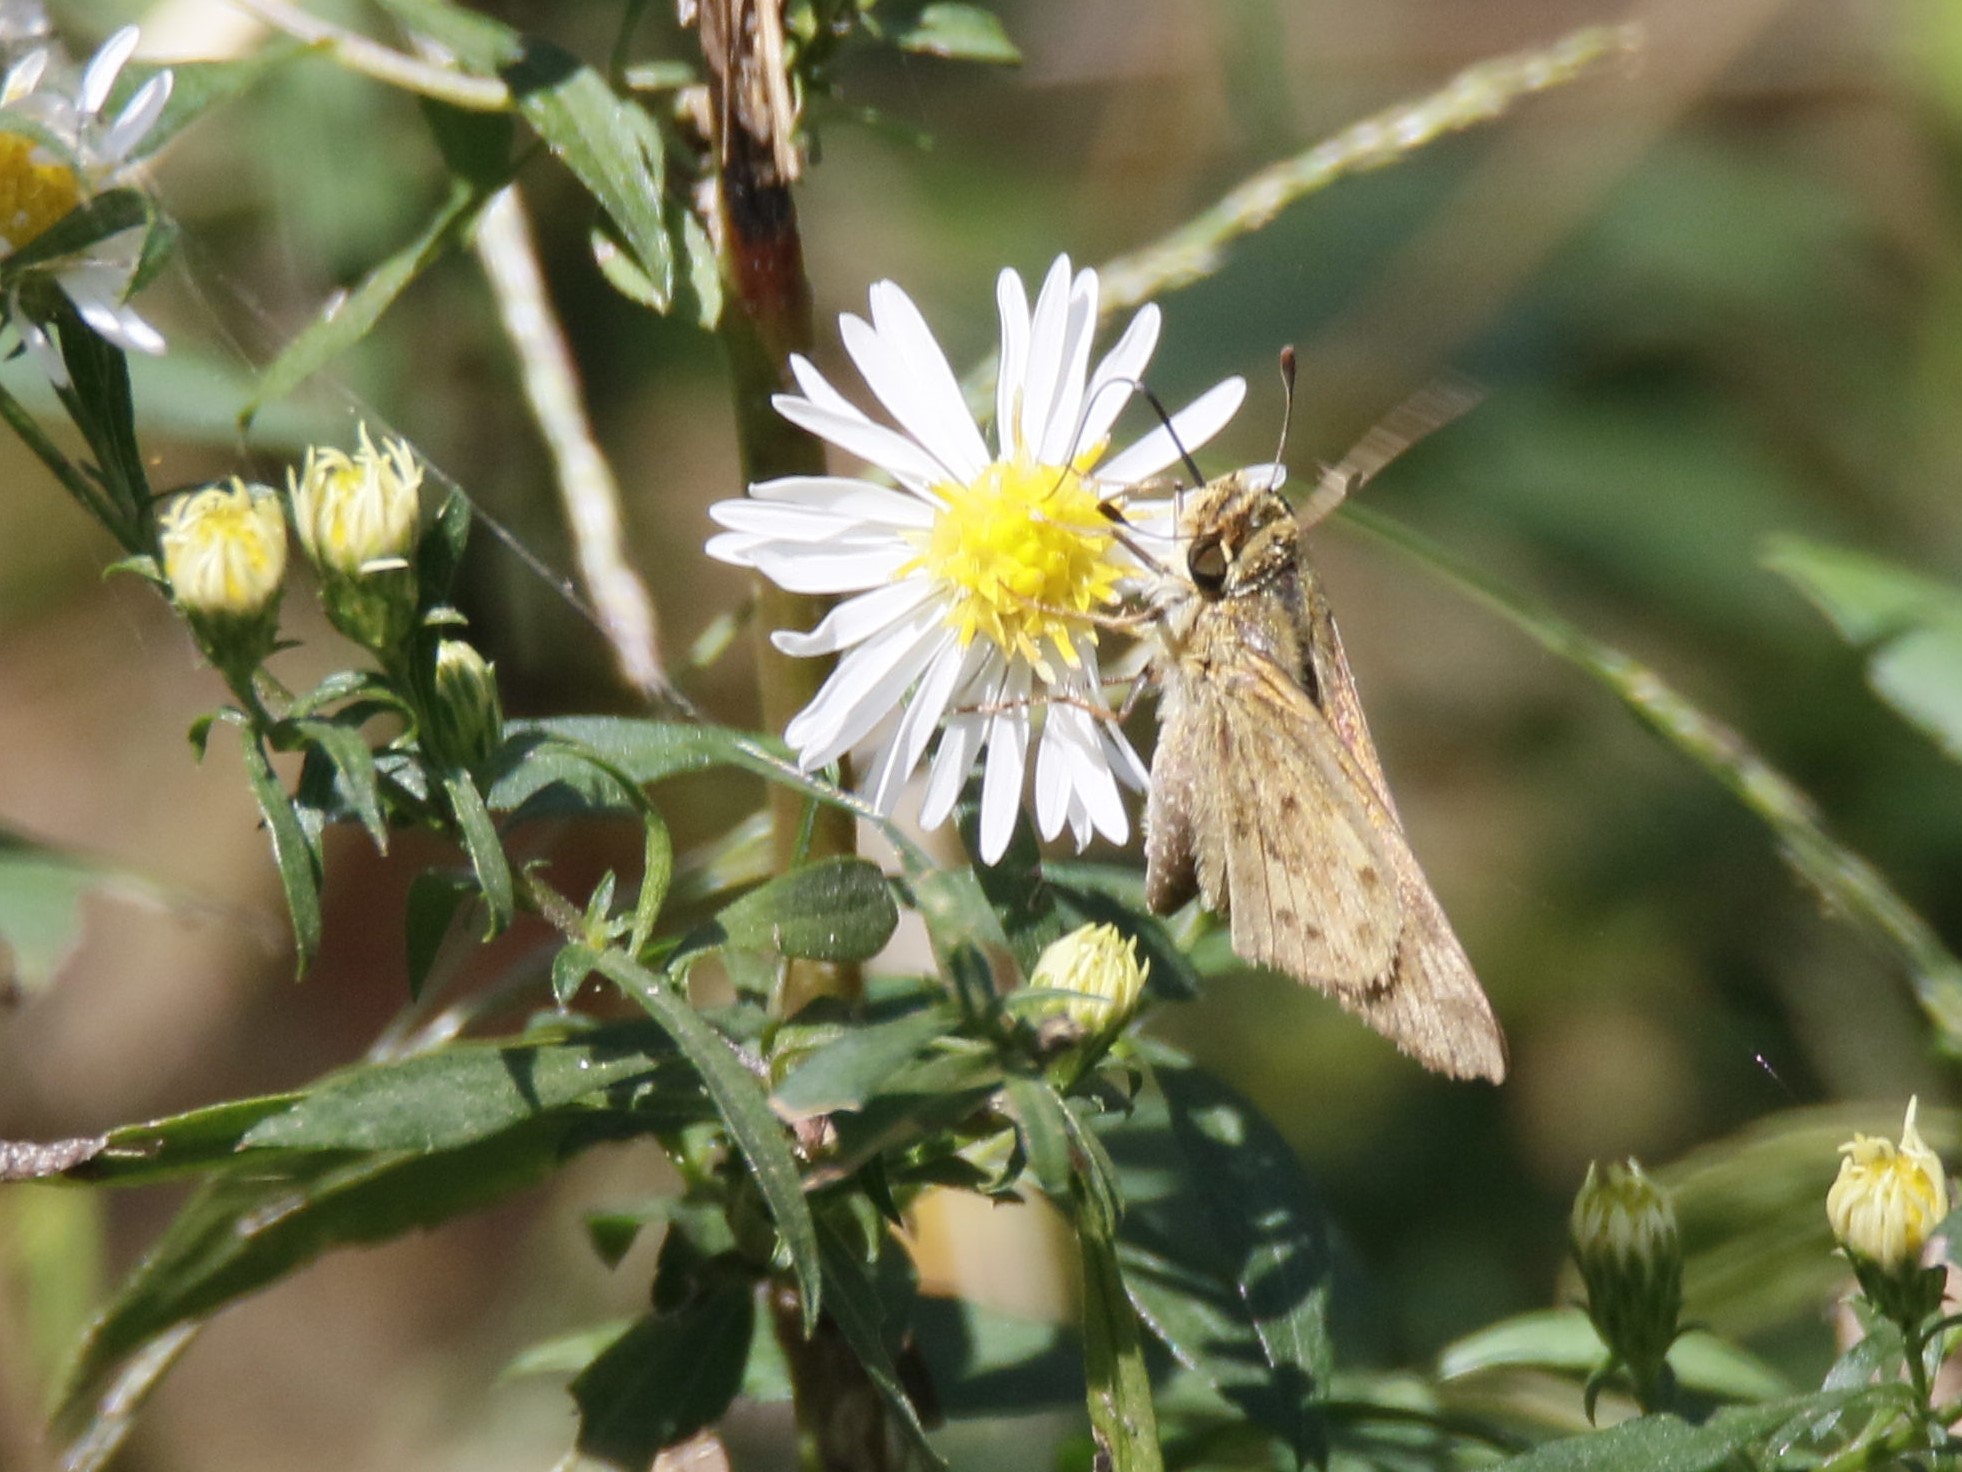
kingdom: Animalia
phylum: Arthropoda
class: Insecta
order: Lepidoptera
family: Hesperiidae
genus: Hylephila
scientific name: Hylephila phyleus
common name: Fiery skipper
